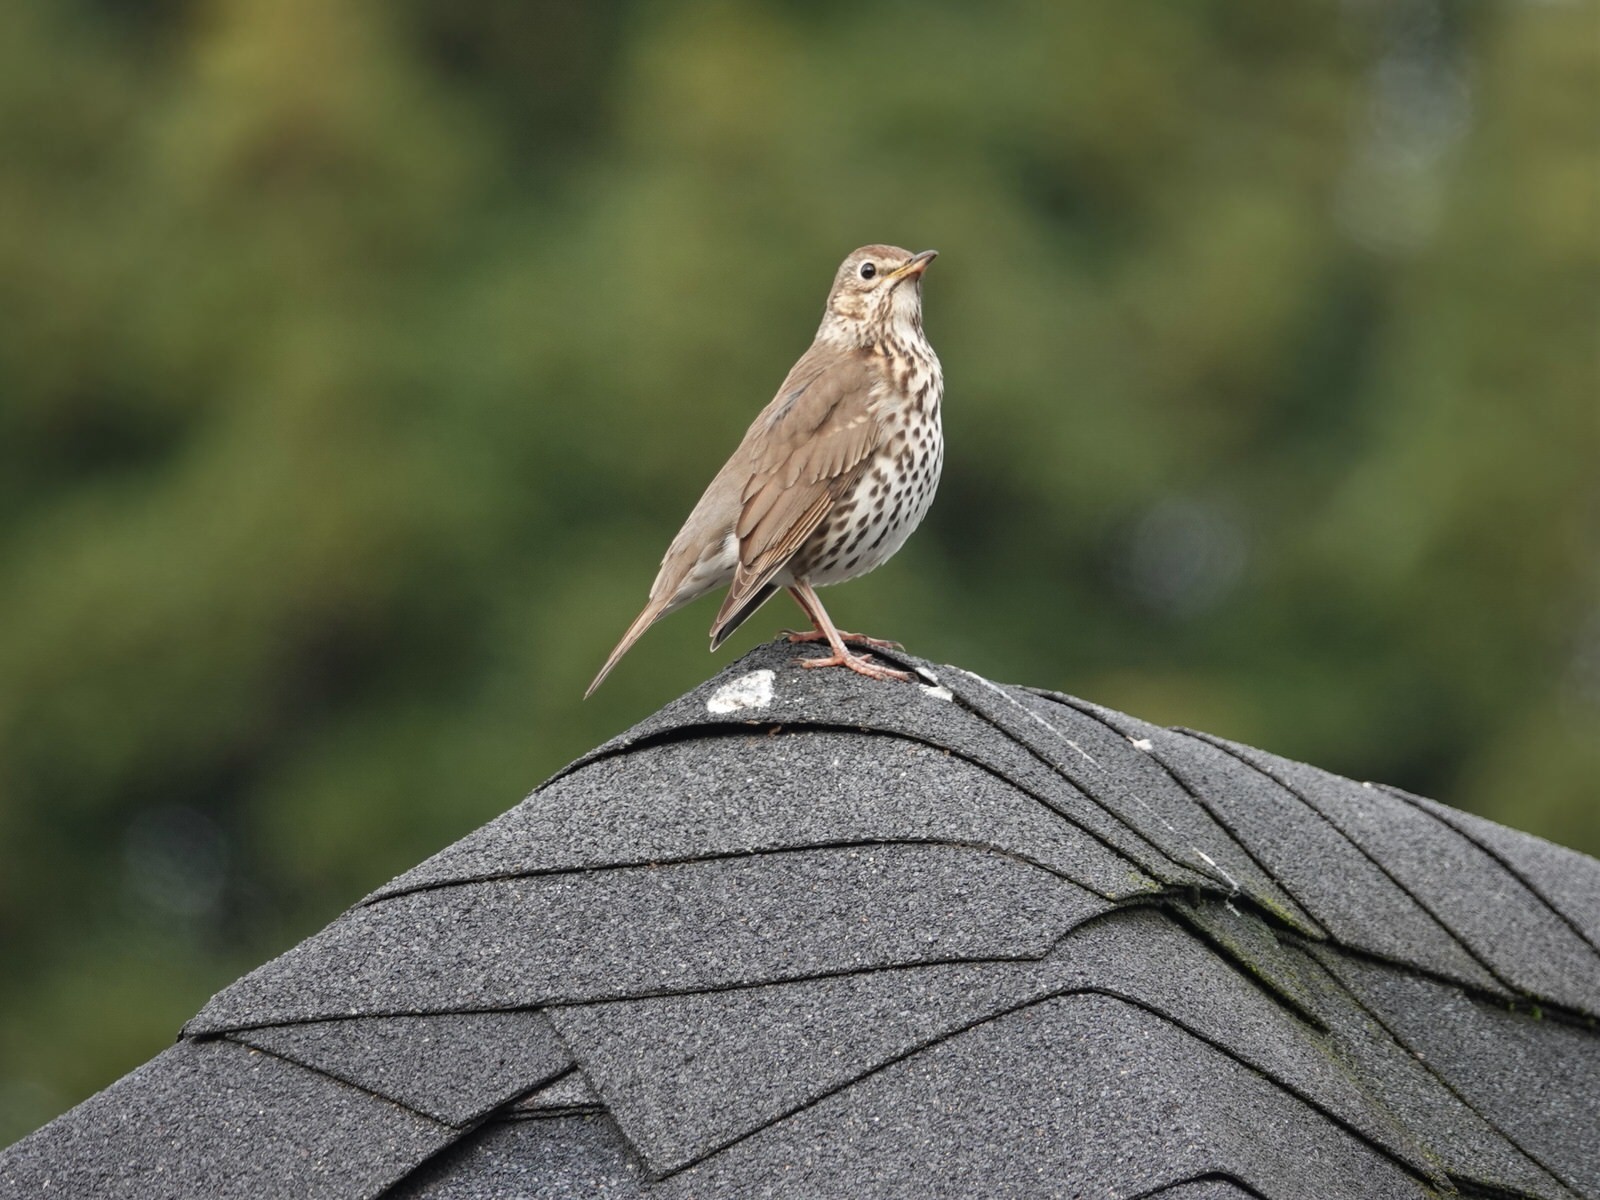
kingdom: Animalia
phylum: Chordata
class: Aves
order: Passeriformes
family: Turdidae
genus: Turdus
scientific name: Turdus philomelos
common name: Song thrush
